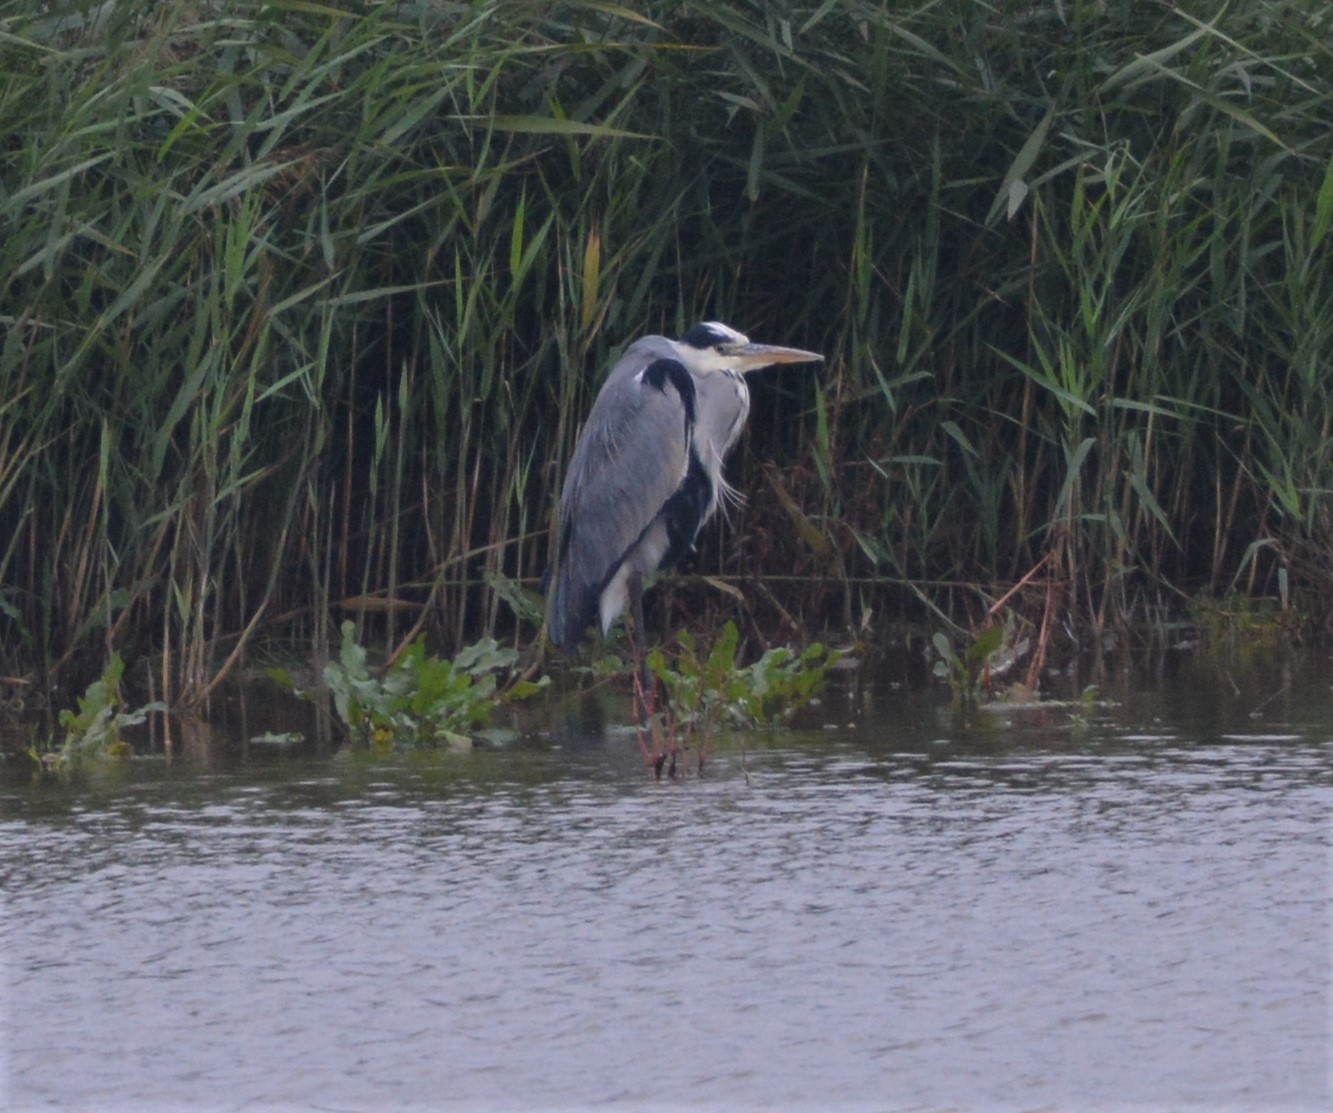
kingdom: Animalia
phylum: Chordata
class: Aves
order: Pelecaniformes
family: Ardeidae
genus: Ardea
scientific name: Ardea cinerea
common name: Grey heron
